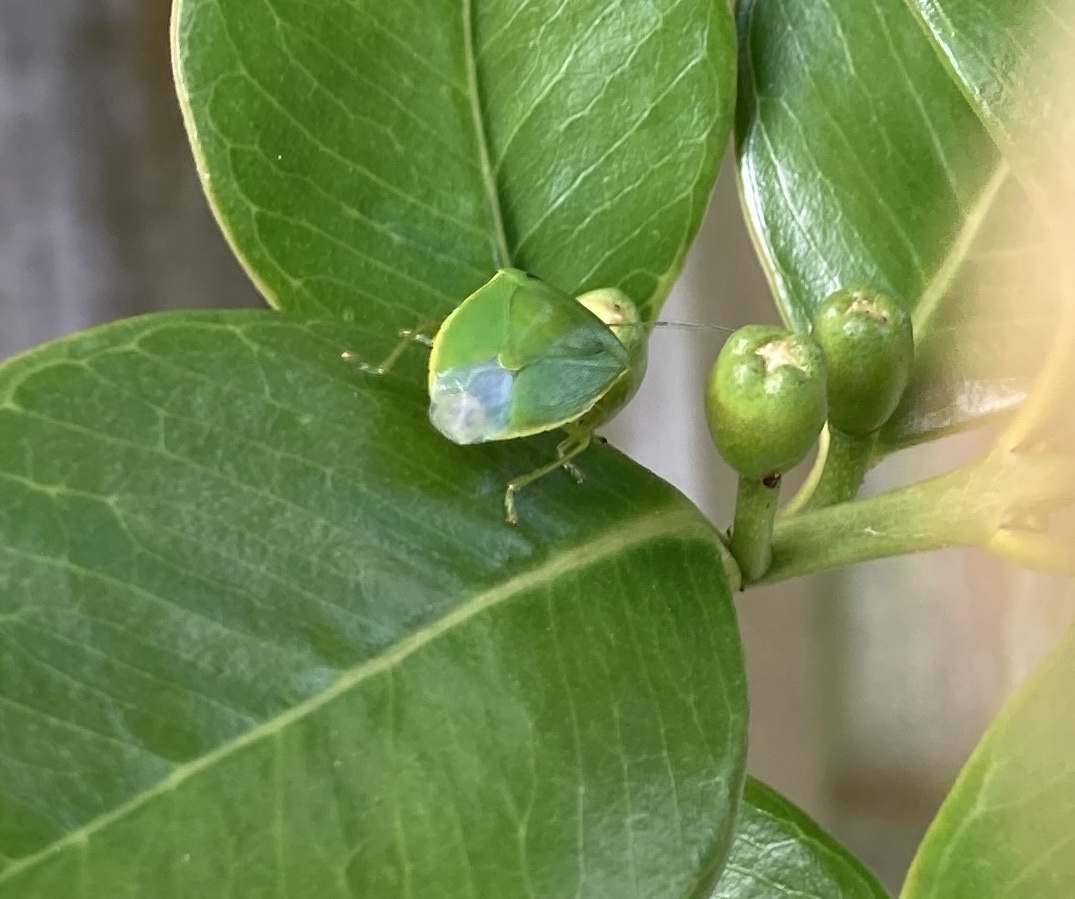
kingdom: Animalia
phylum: Arthropoda
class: Insecta
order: Hemiptera
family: Pentatomidae
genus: Glaucias
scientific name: Glaucias amyota
